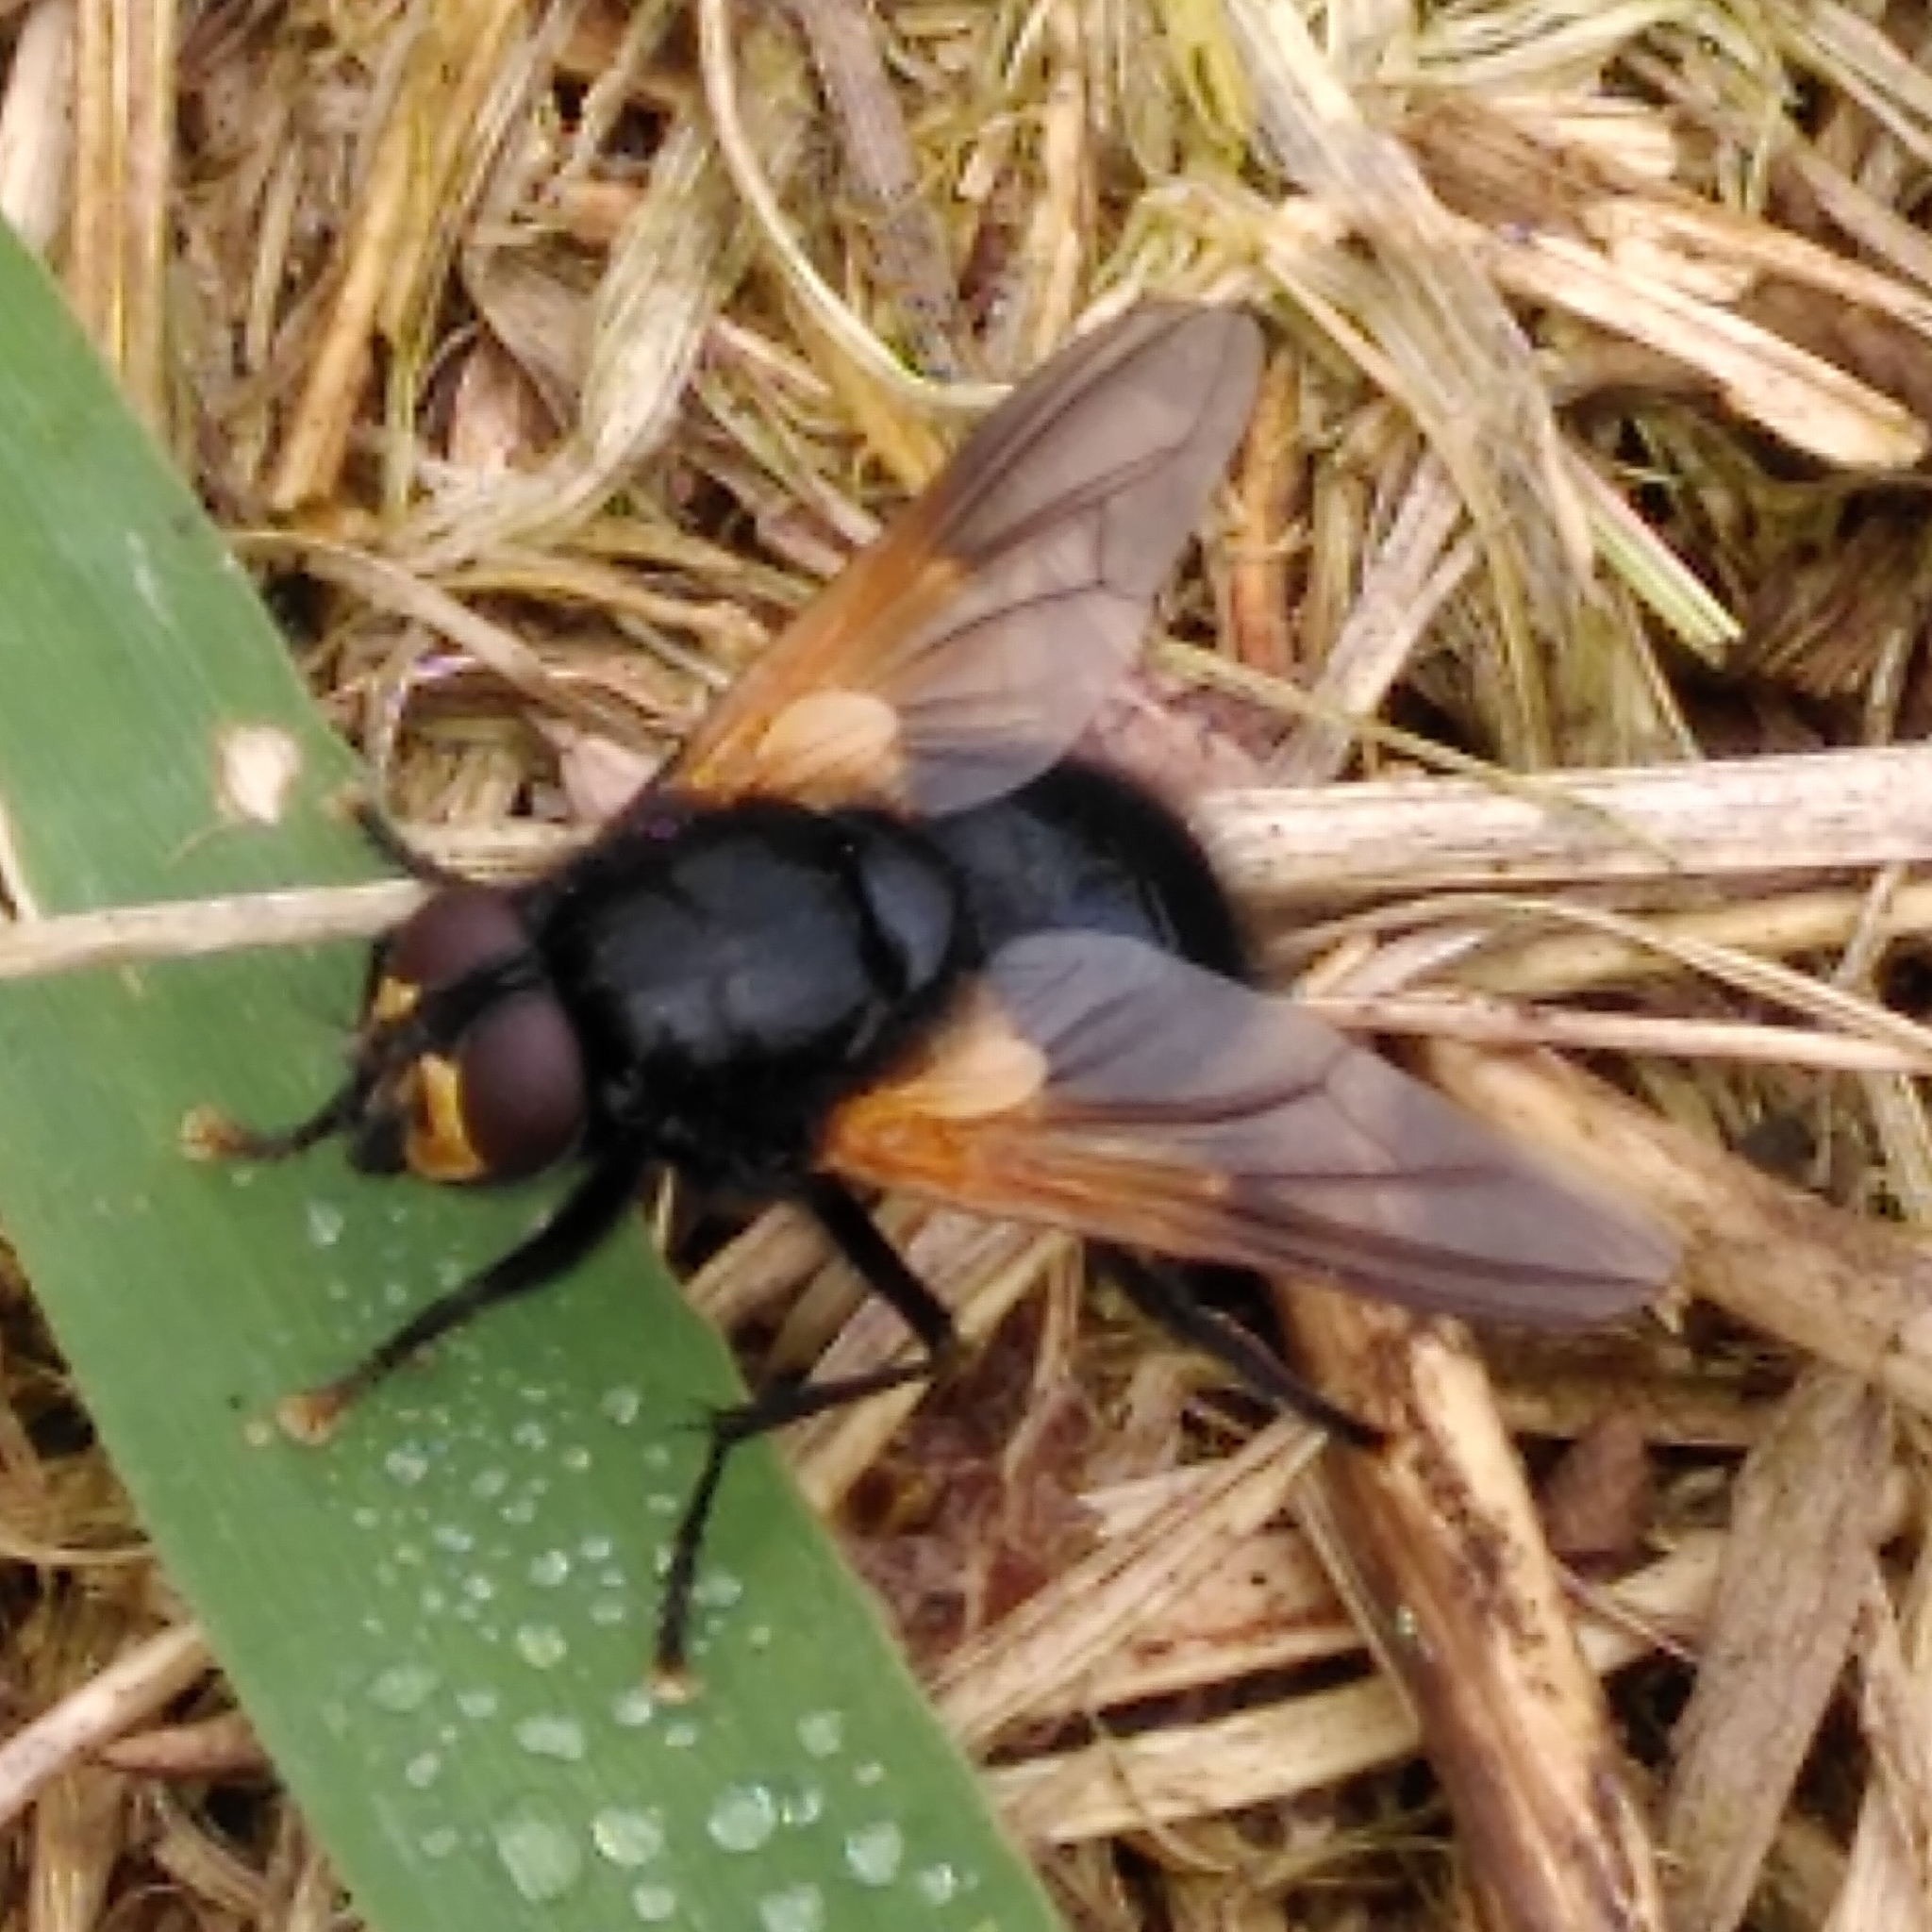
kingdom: Animalia
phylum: Arthropoda
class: Insecta
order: Diptera
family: Muscidae
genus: Mesembrina
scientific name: Mesembrina meridiana
